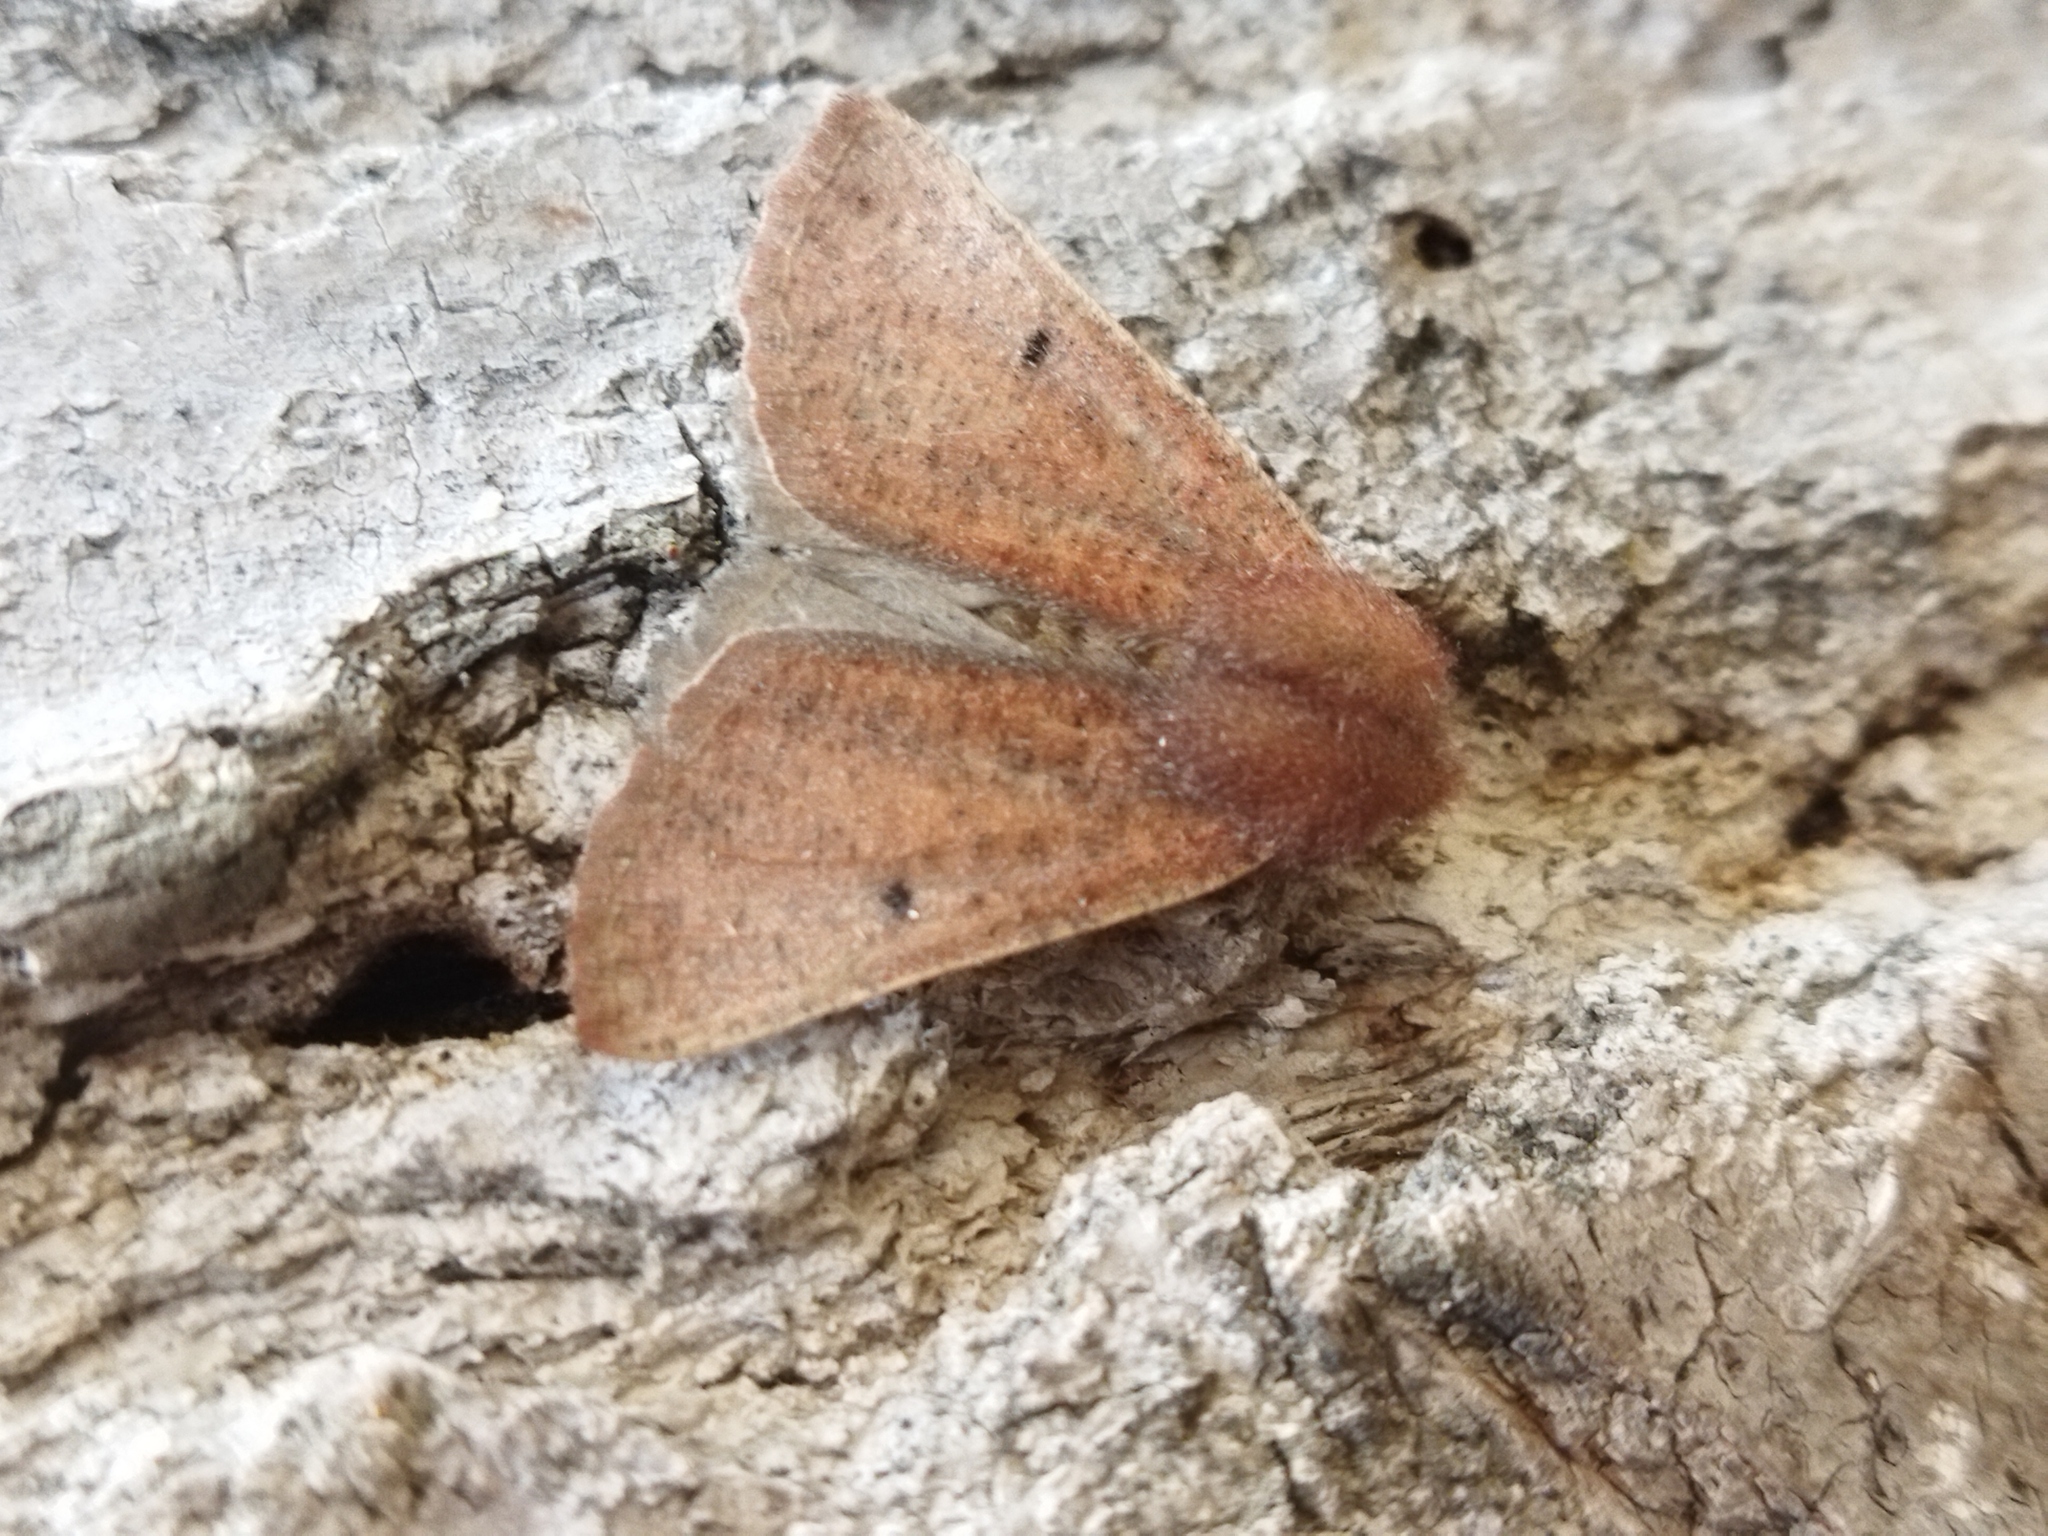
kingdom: Animalia
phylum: Arthropoda
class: Insecta
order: Lepidoptera
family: Geometridae
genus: Dasycorsa
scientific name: Dasycorsa modesta
